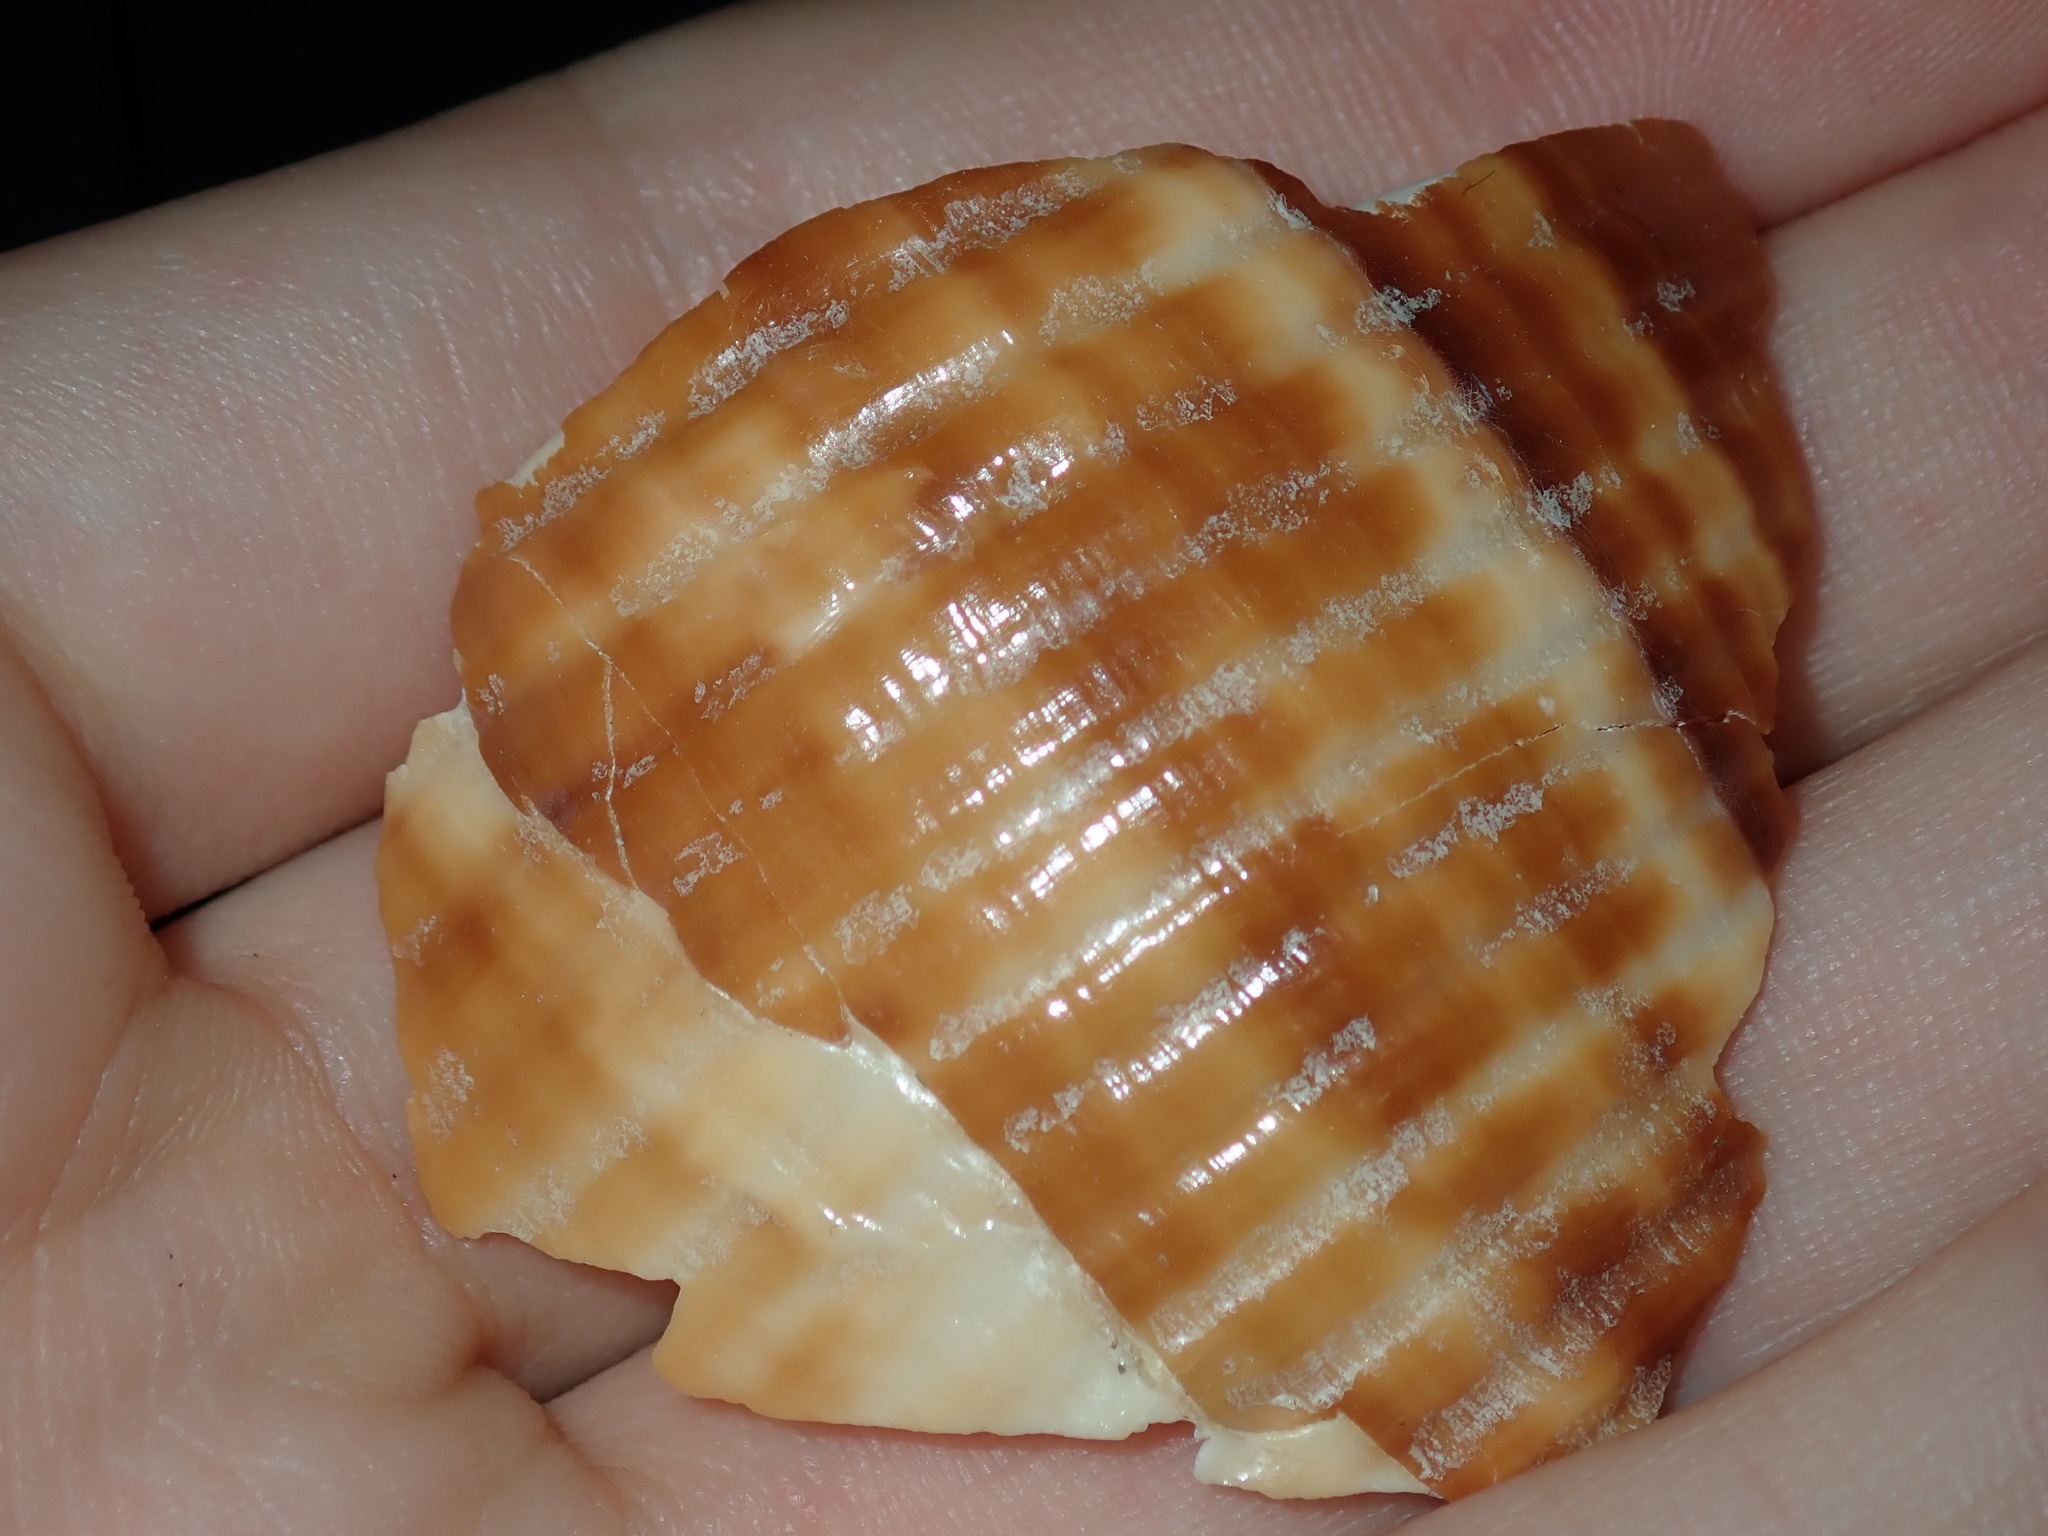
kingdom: Animalia
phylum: Mollusca
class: Gastropoda
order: Littorinimorpha
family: Tonnidae
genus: Tonna
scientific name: Tonna chinensis
